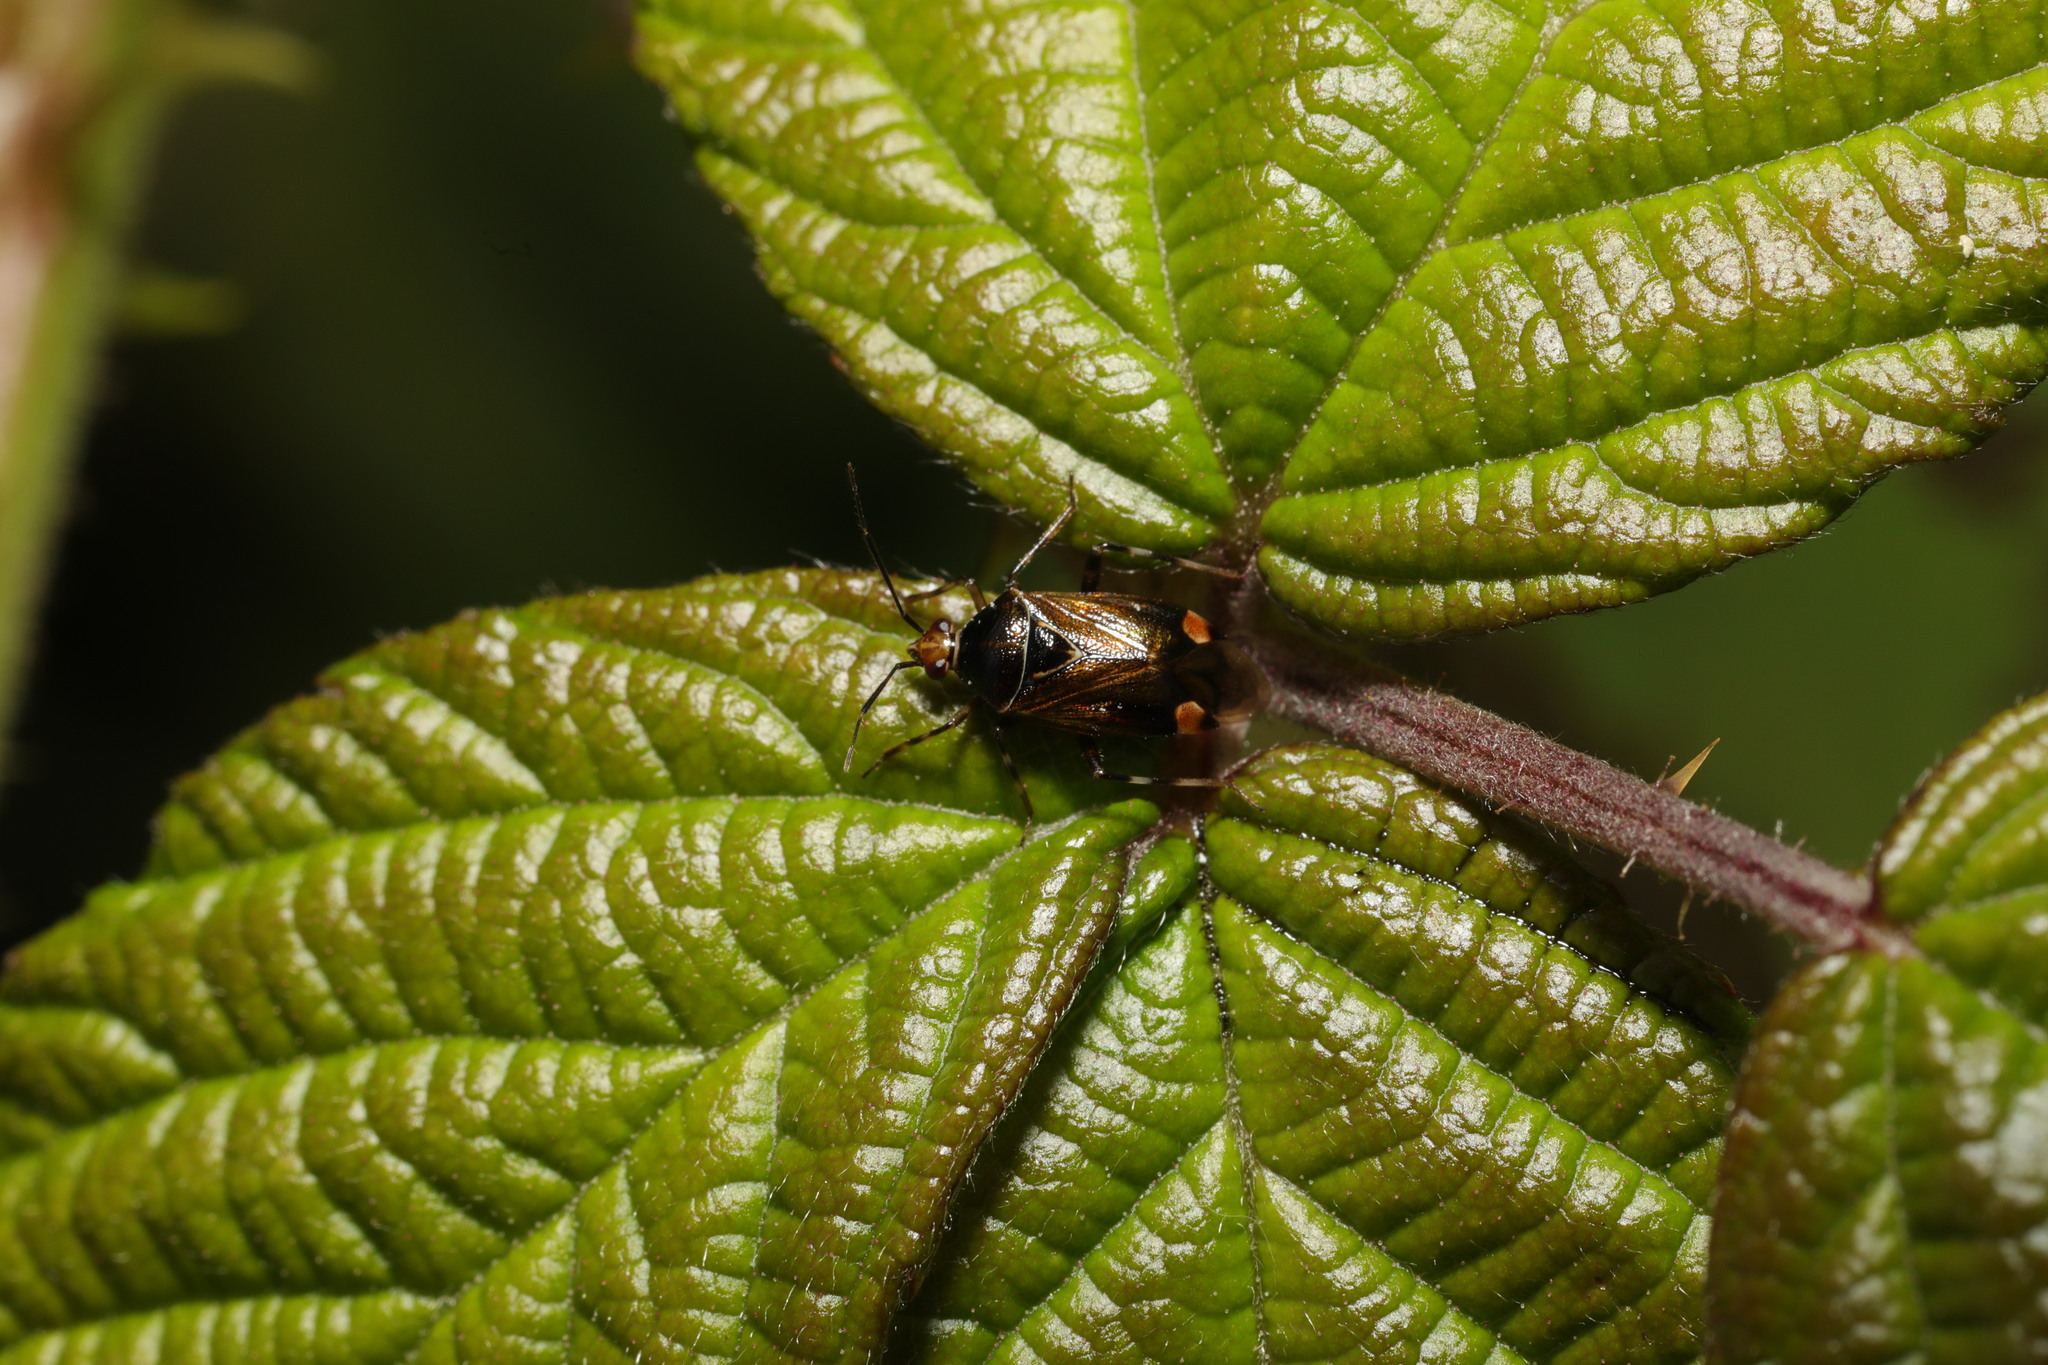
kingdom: Animalia
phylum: Arthropoda
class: Insecta
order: Hemiptera
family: Miridae
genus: Deraeocoris
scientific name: Deraeocoris flavilinea
